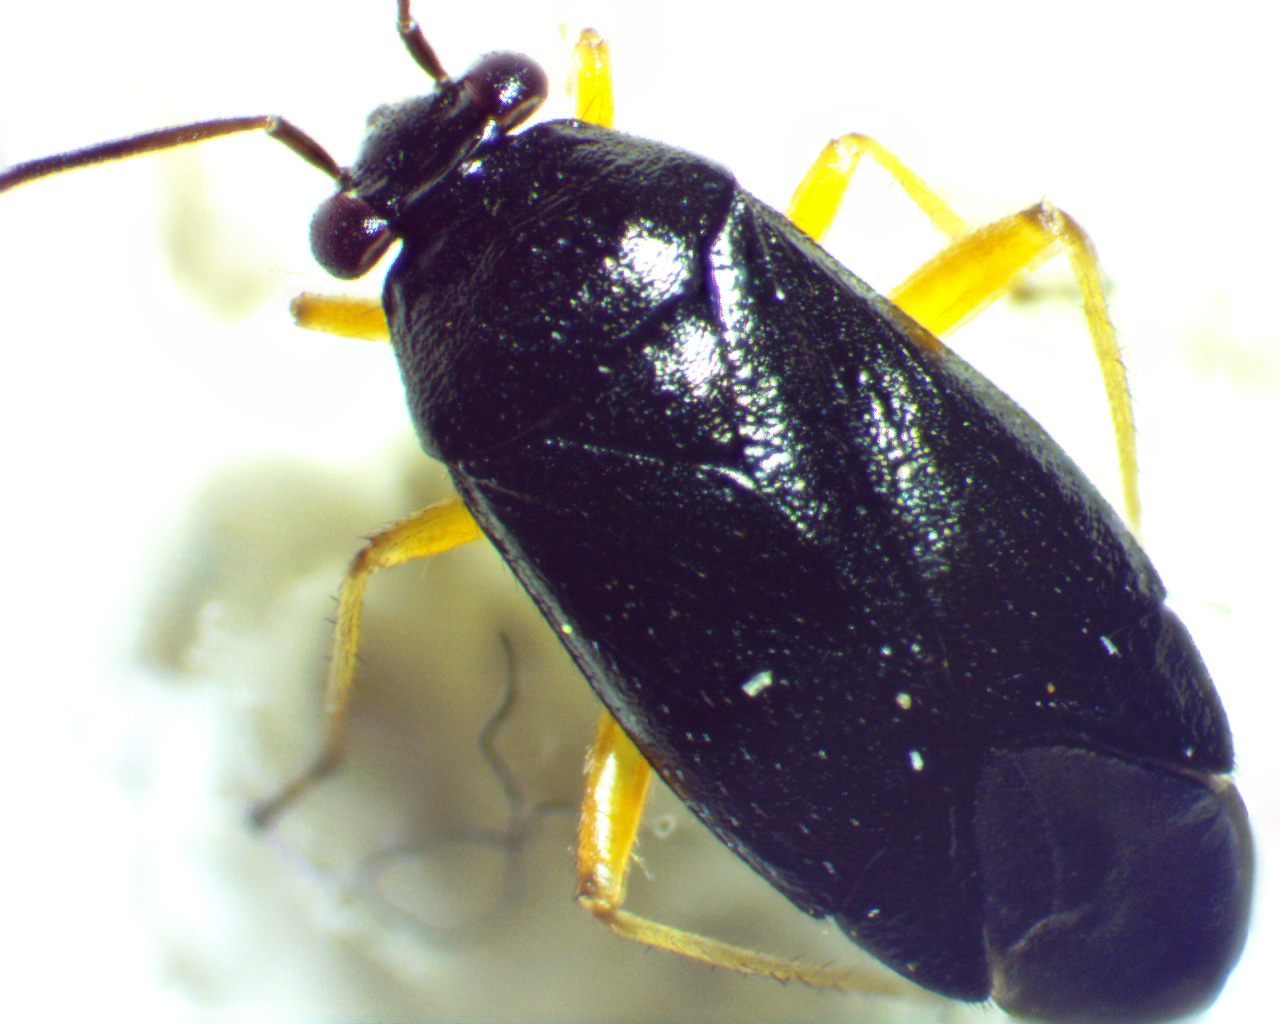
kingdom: Animalia
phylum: Arthropoda
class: Insecta
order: Hemiptera
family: Miridae
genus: Slaterocoris
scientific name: Slaterocoris pallipes
